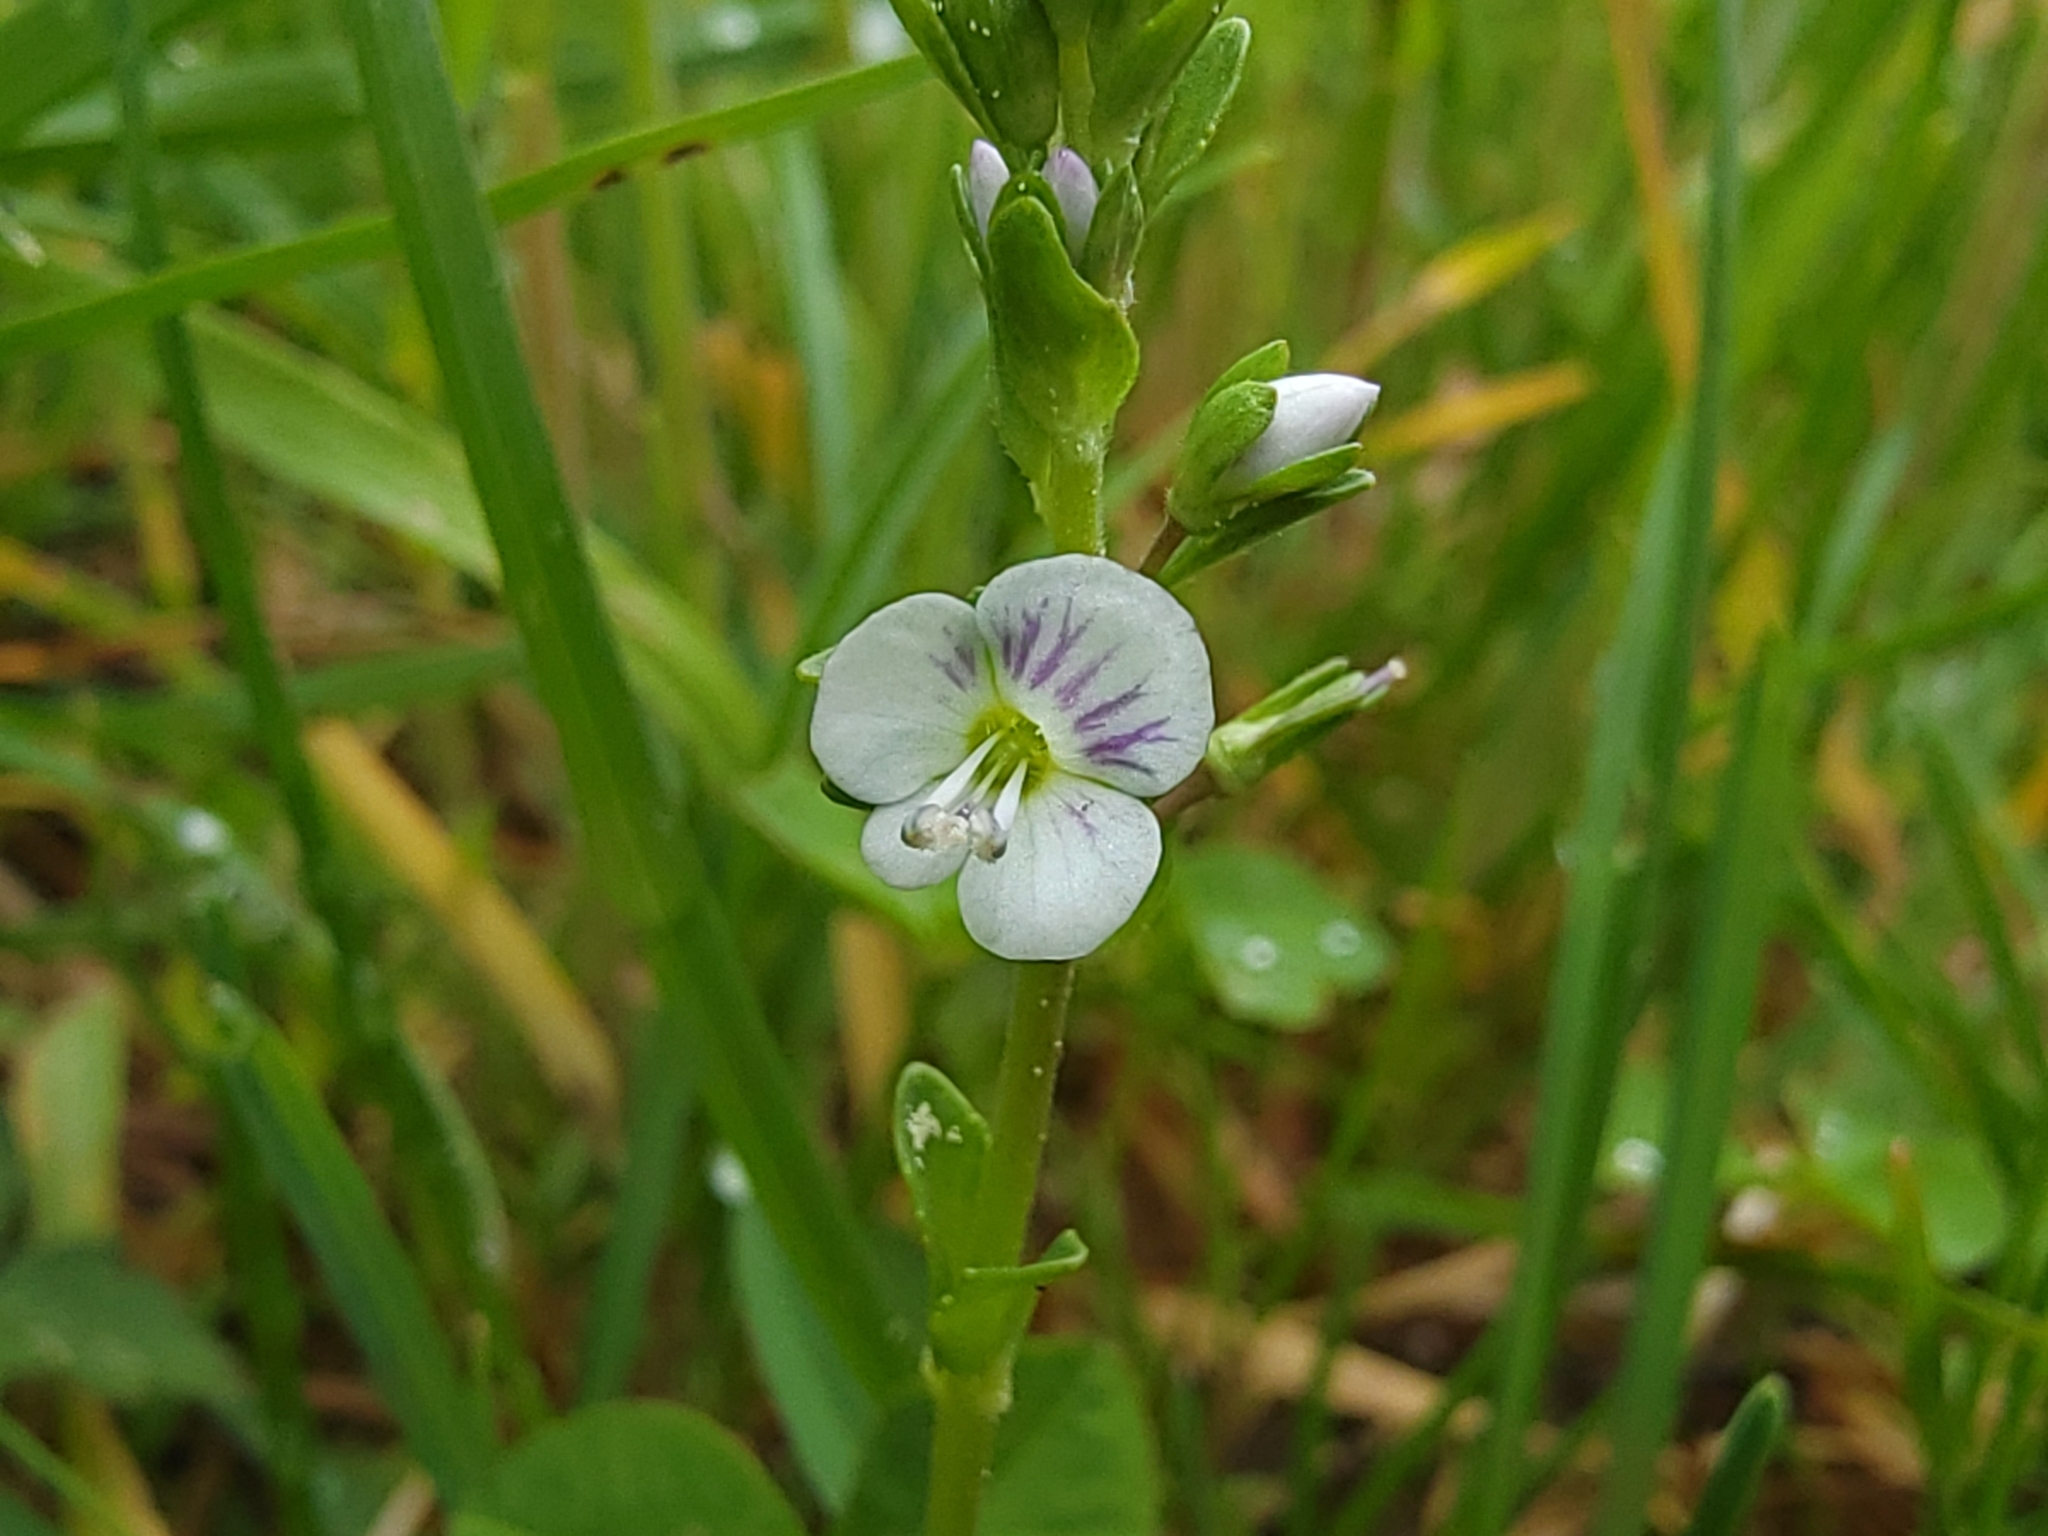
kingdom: Plantae
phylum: Tracheophyta
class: Magnoliopsida
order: Lamiales
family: Plantaginaceae
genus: Veronica
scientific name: Veronica serpyllifolia
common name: Thyme-leaved speedwell
